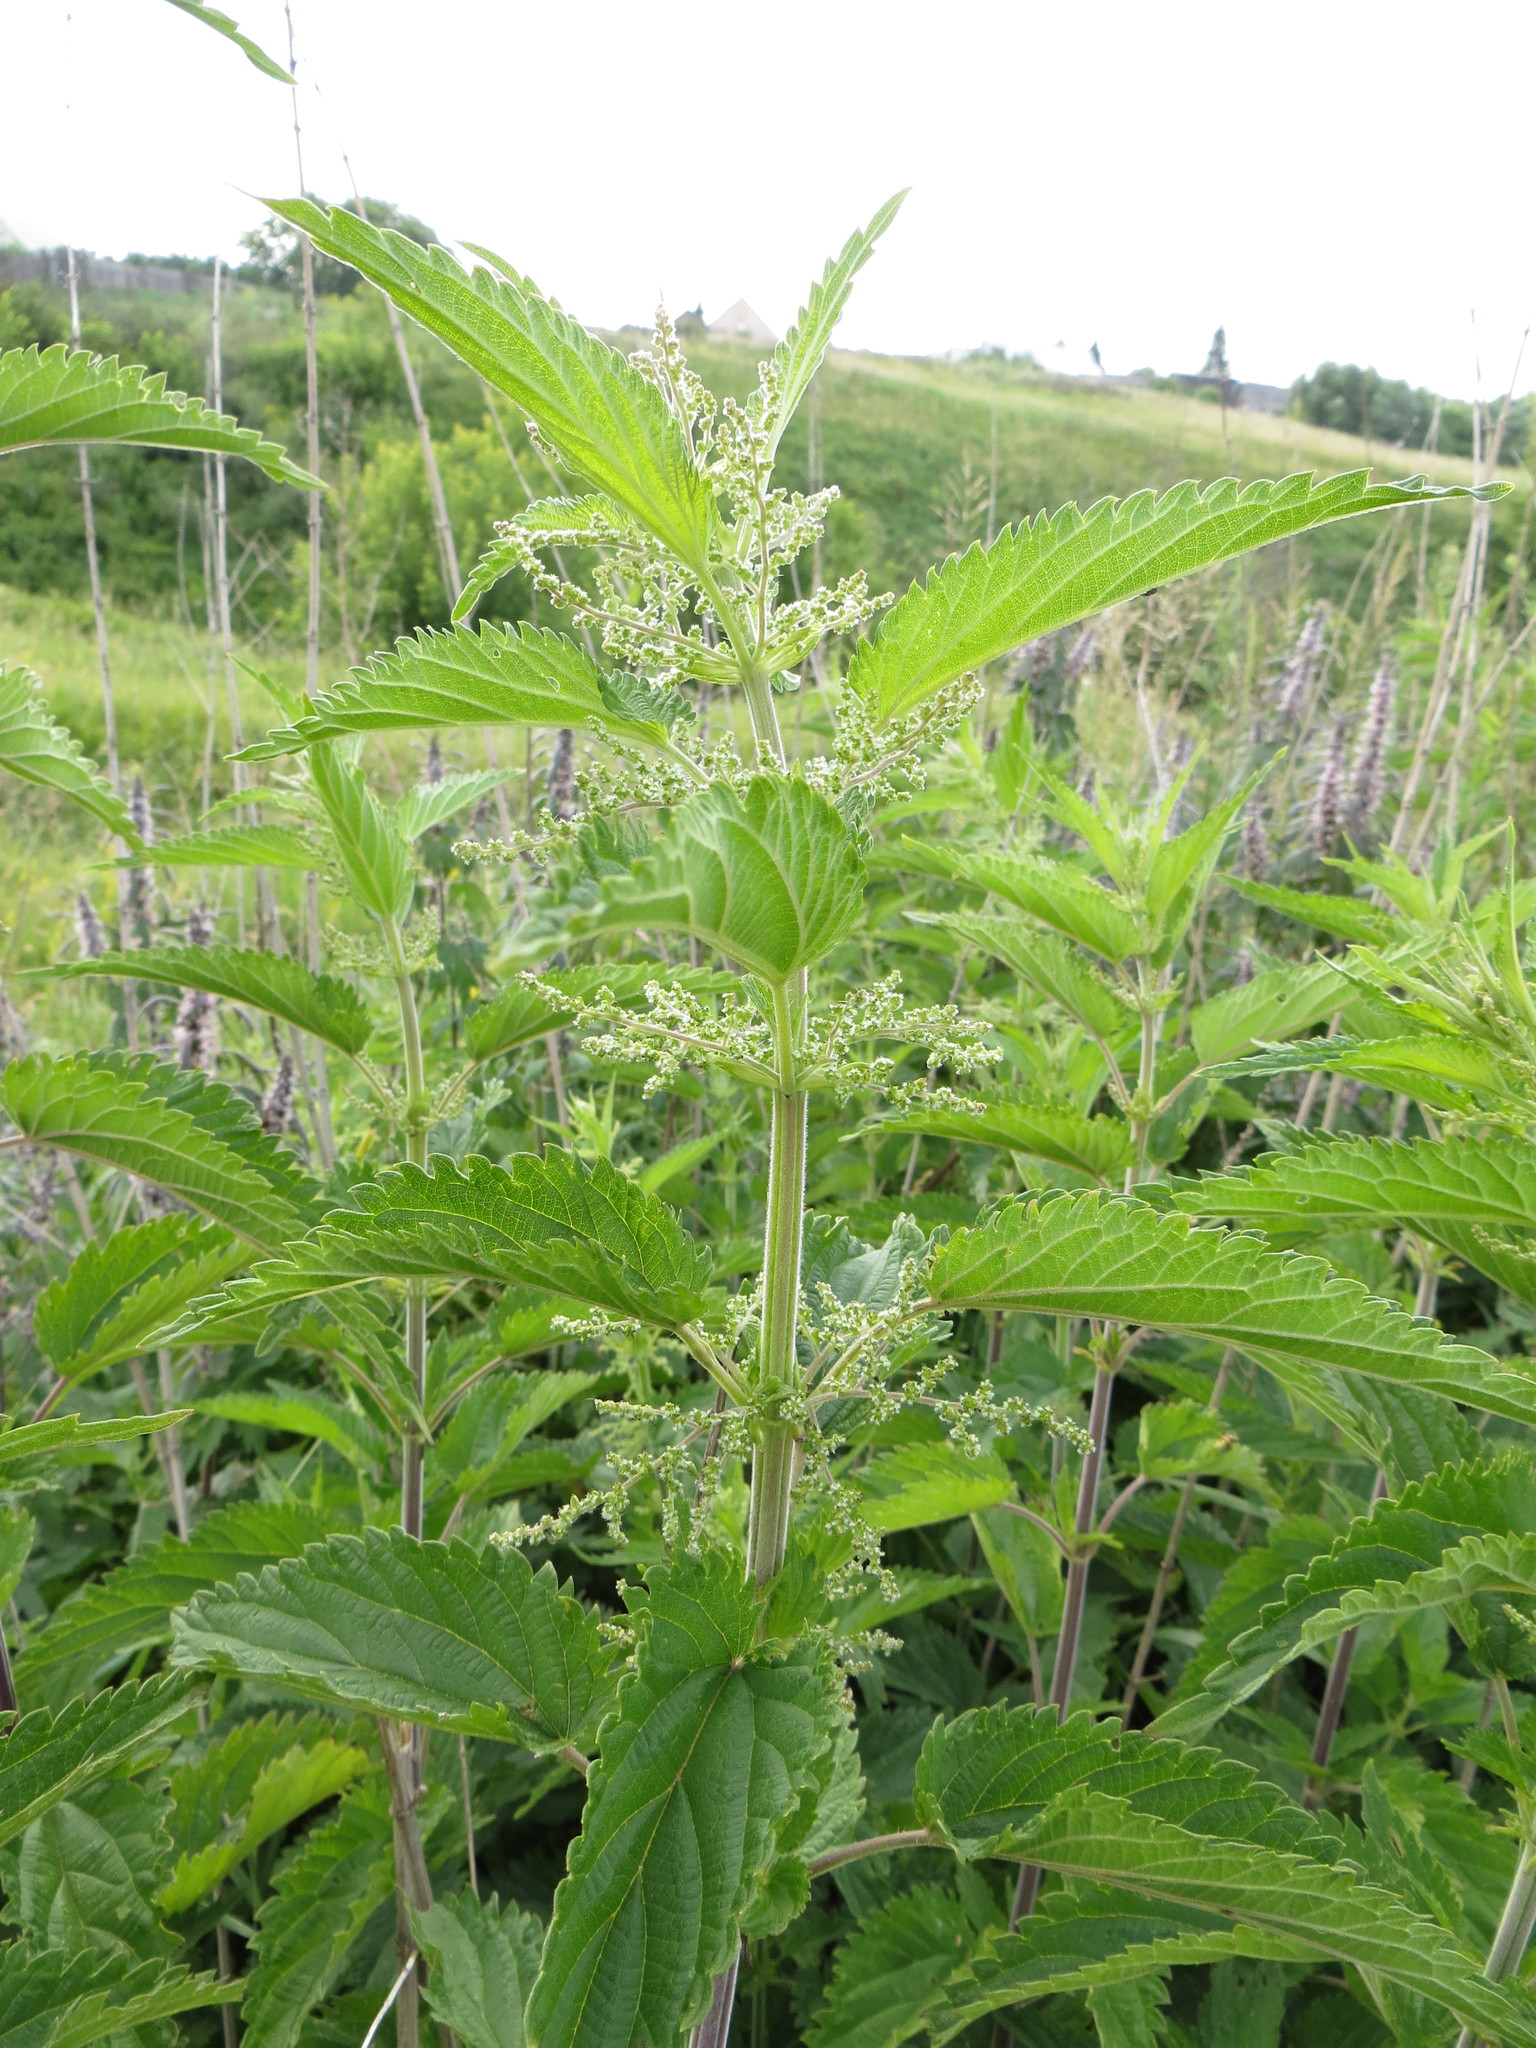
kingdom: Plantae
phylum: Tracheophyta
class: Magnoliopsida
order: Rosales
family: Urticaceae
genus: Urtica
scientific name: Urtica galeopsifolia
